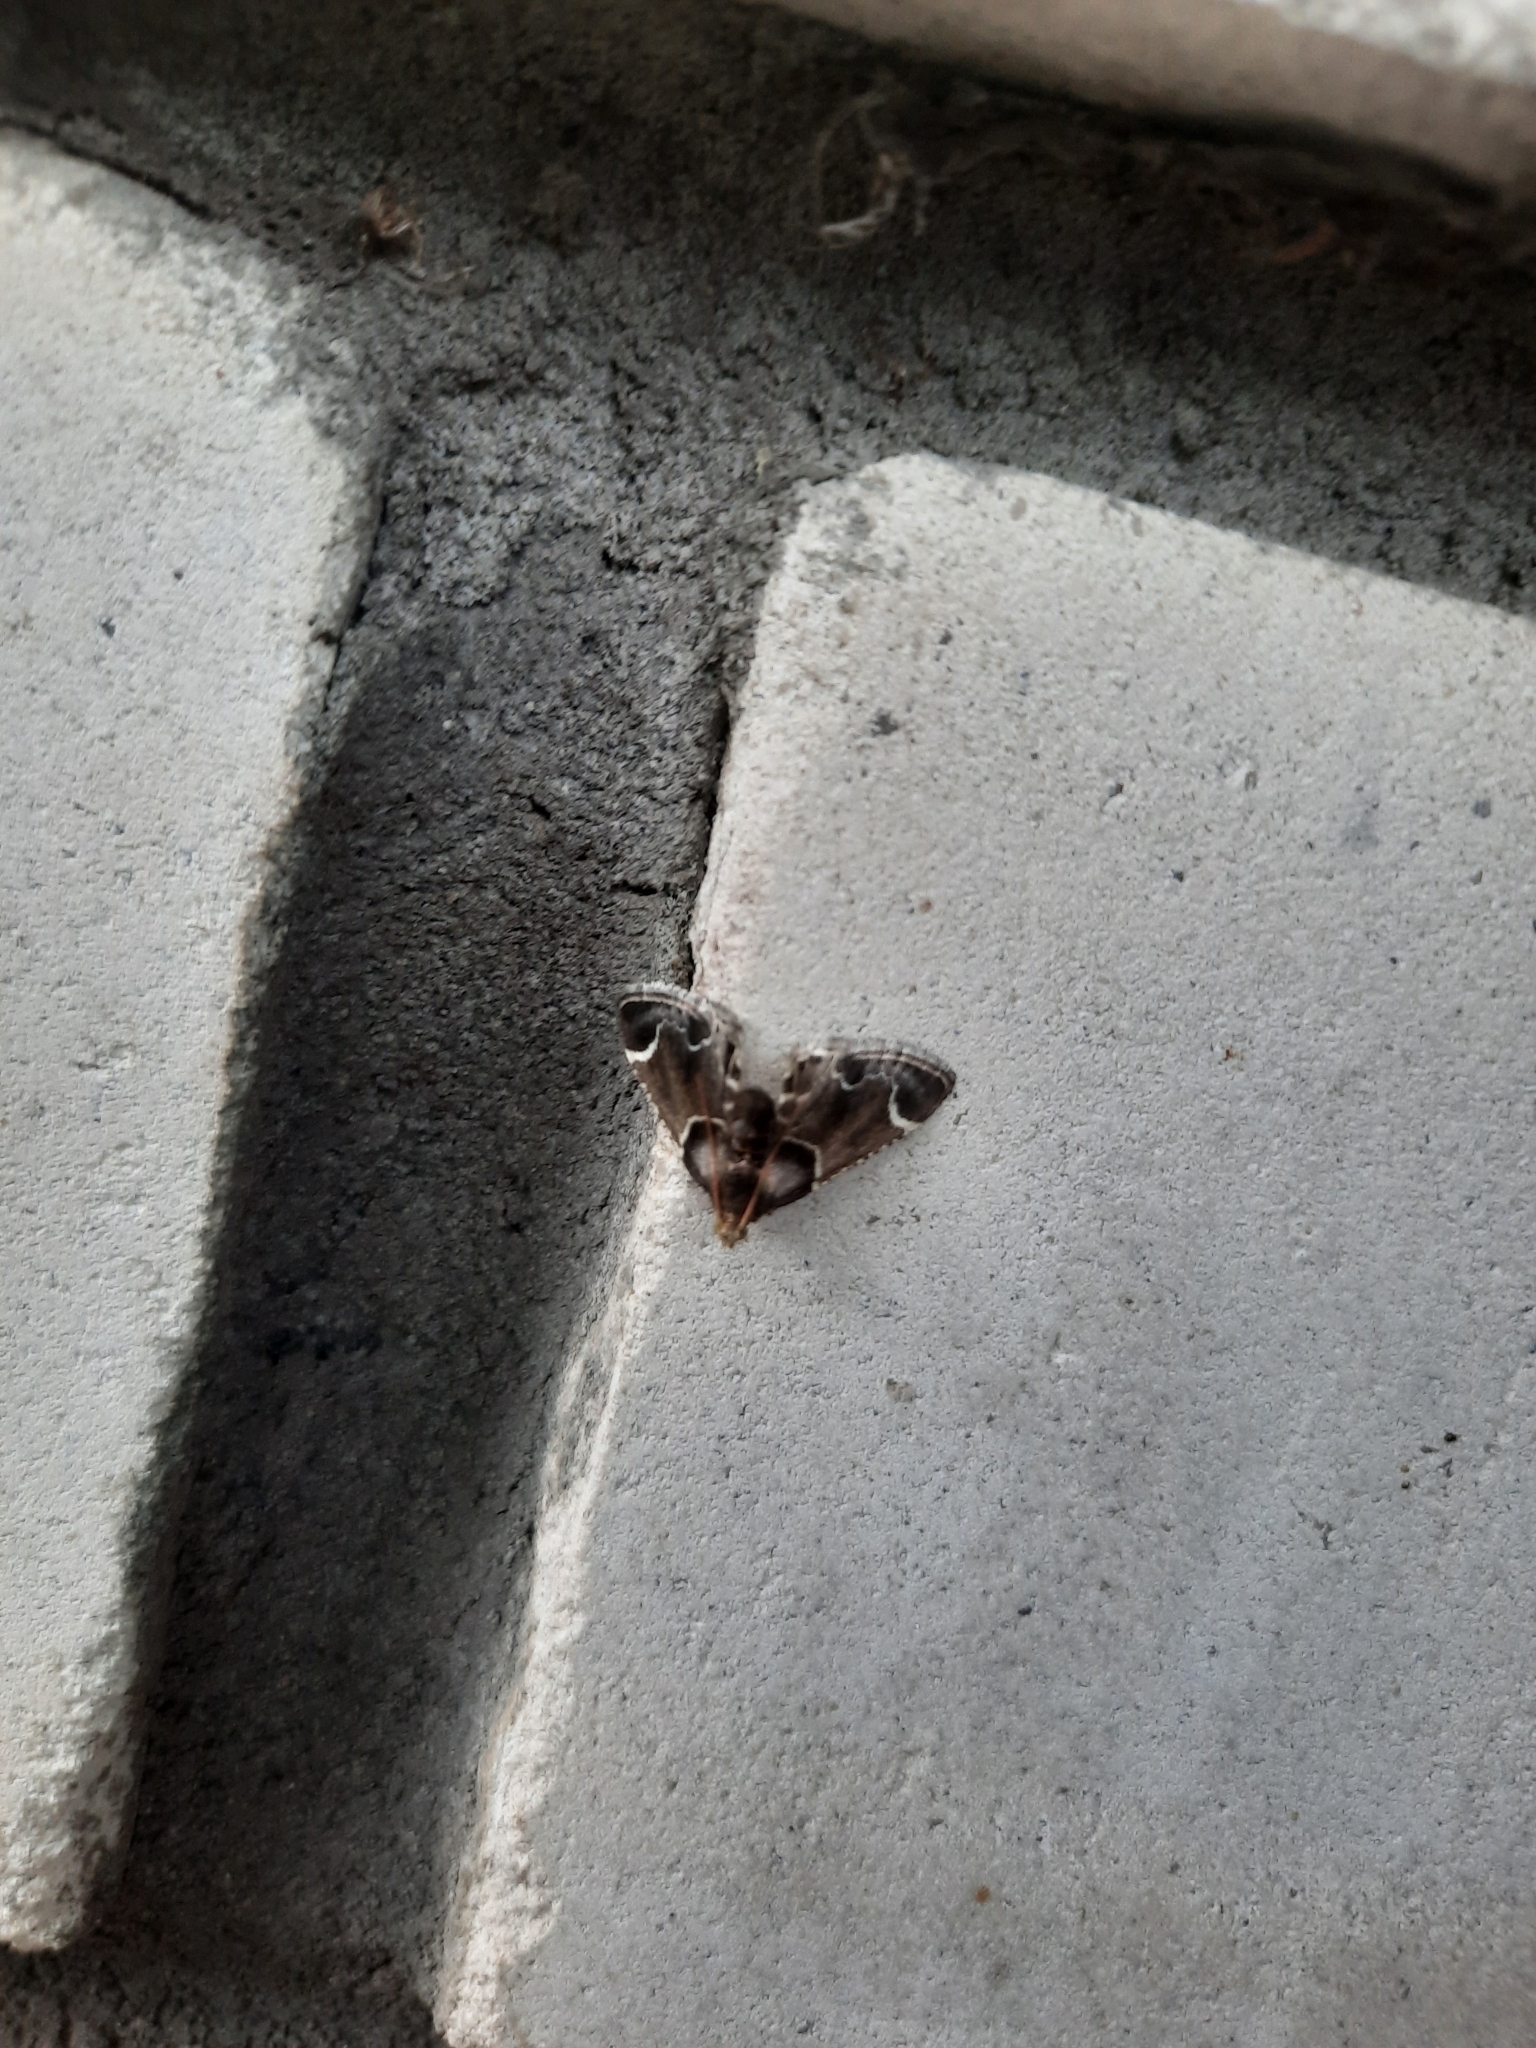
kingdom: Animalia
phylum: Arthropoda
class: Insecta
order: Lepidoptera
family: Pyralidae
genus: Pyralis
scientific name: Pyralis farinalis
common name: Meal moth
